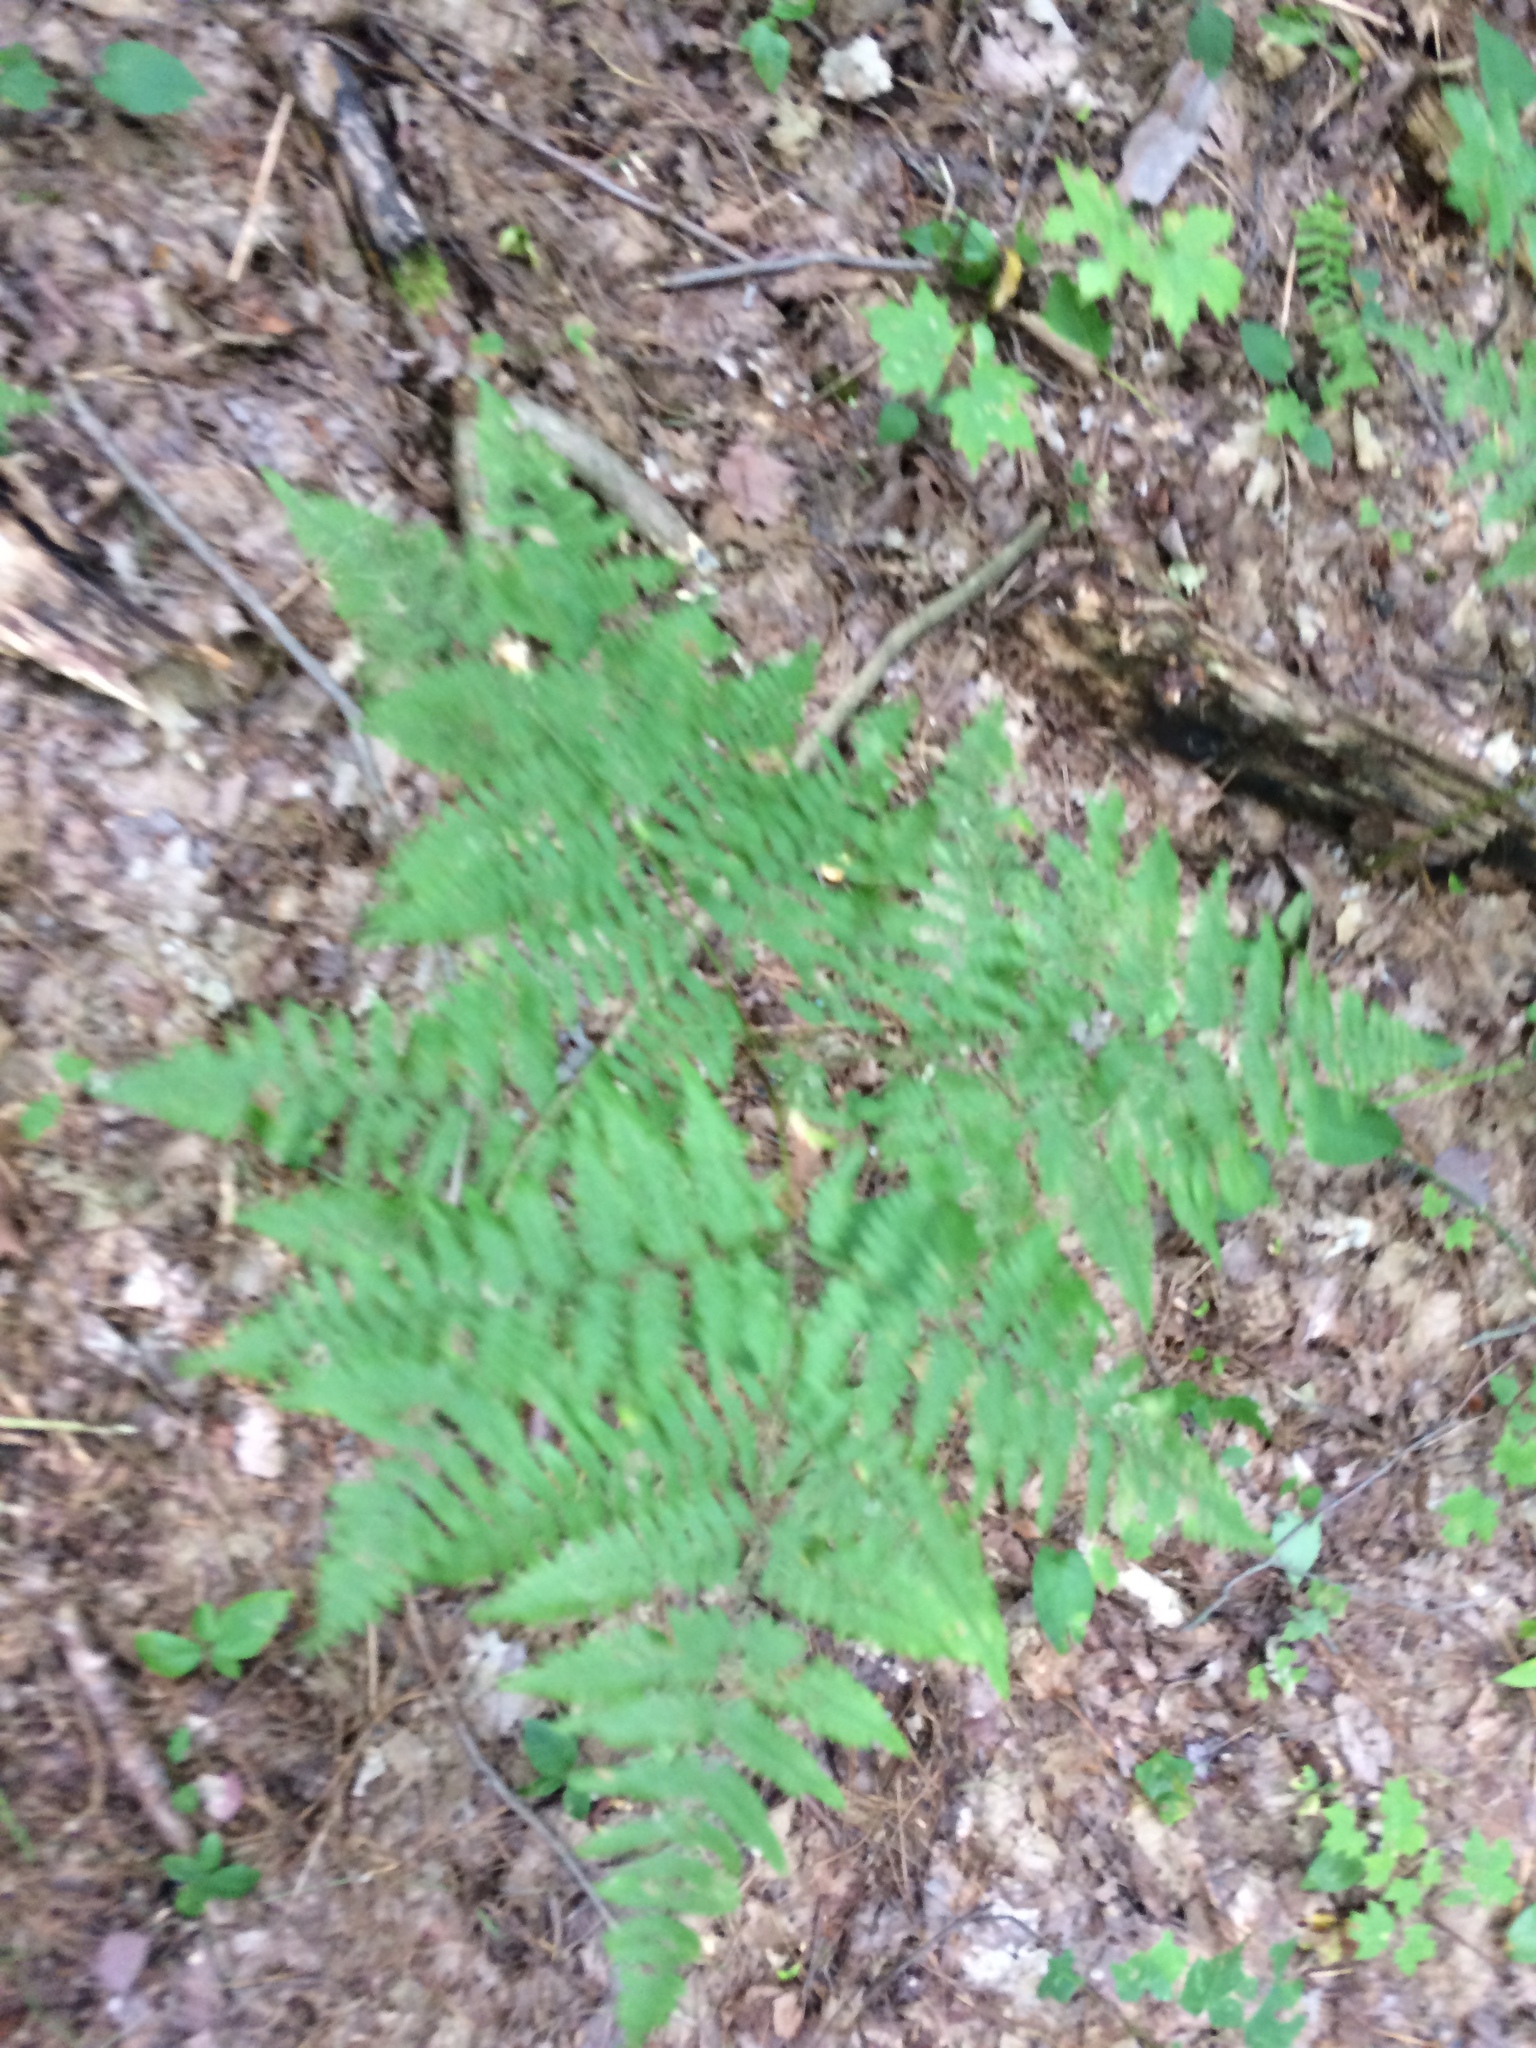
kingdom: Plantae
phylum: Tracheophyta
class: Polypodiopsida
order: Polypodiales
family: Dennstaedtiaceae
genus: Pteridium
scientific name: Pteridium aquilinum
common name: Bracken
